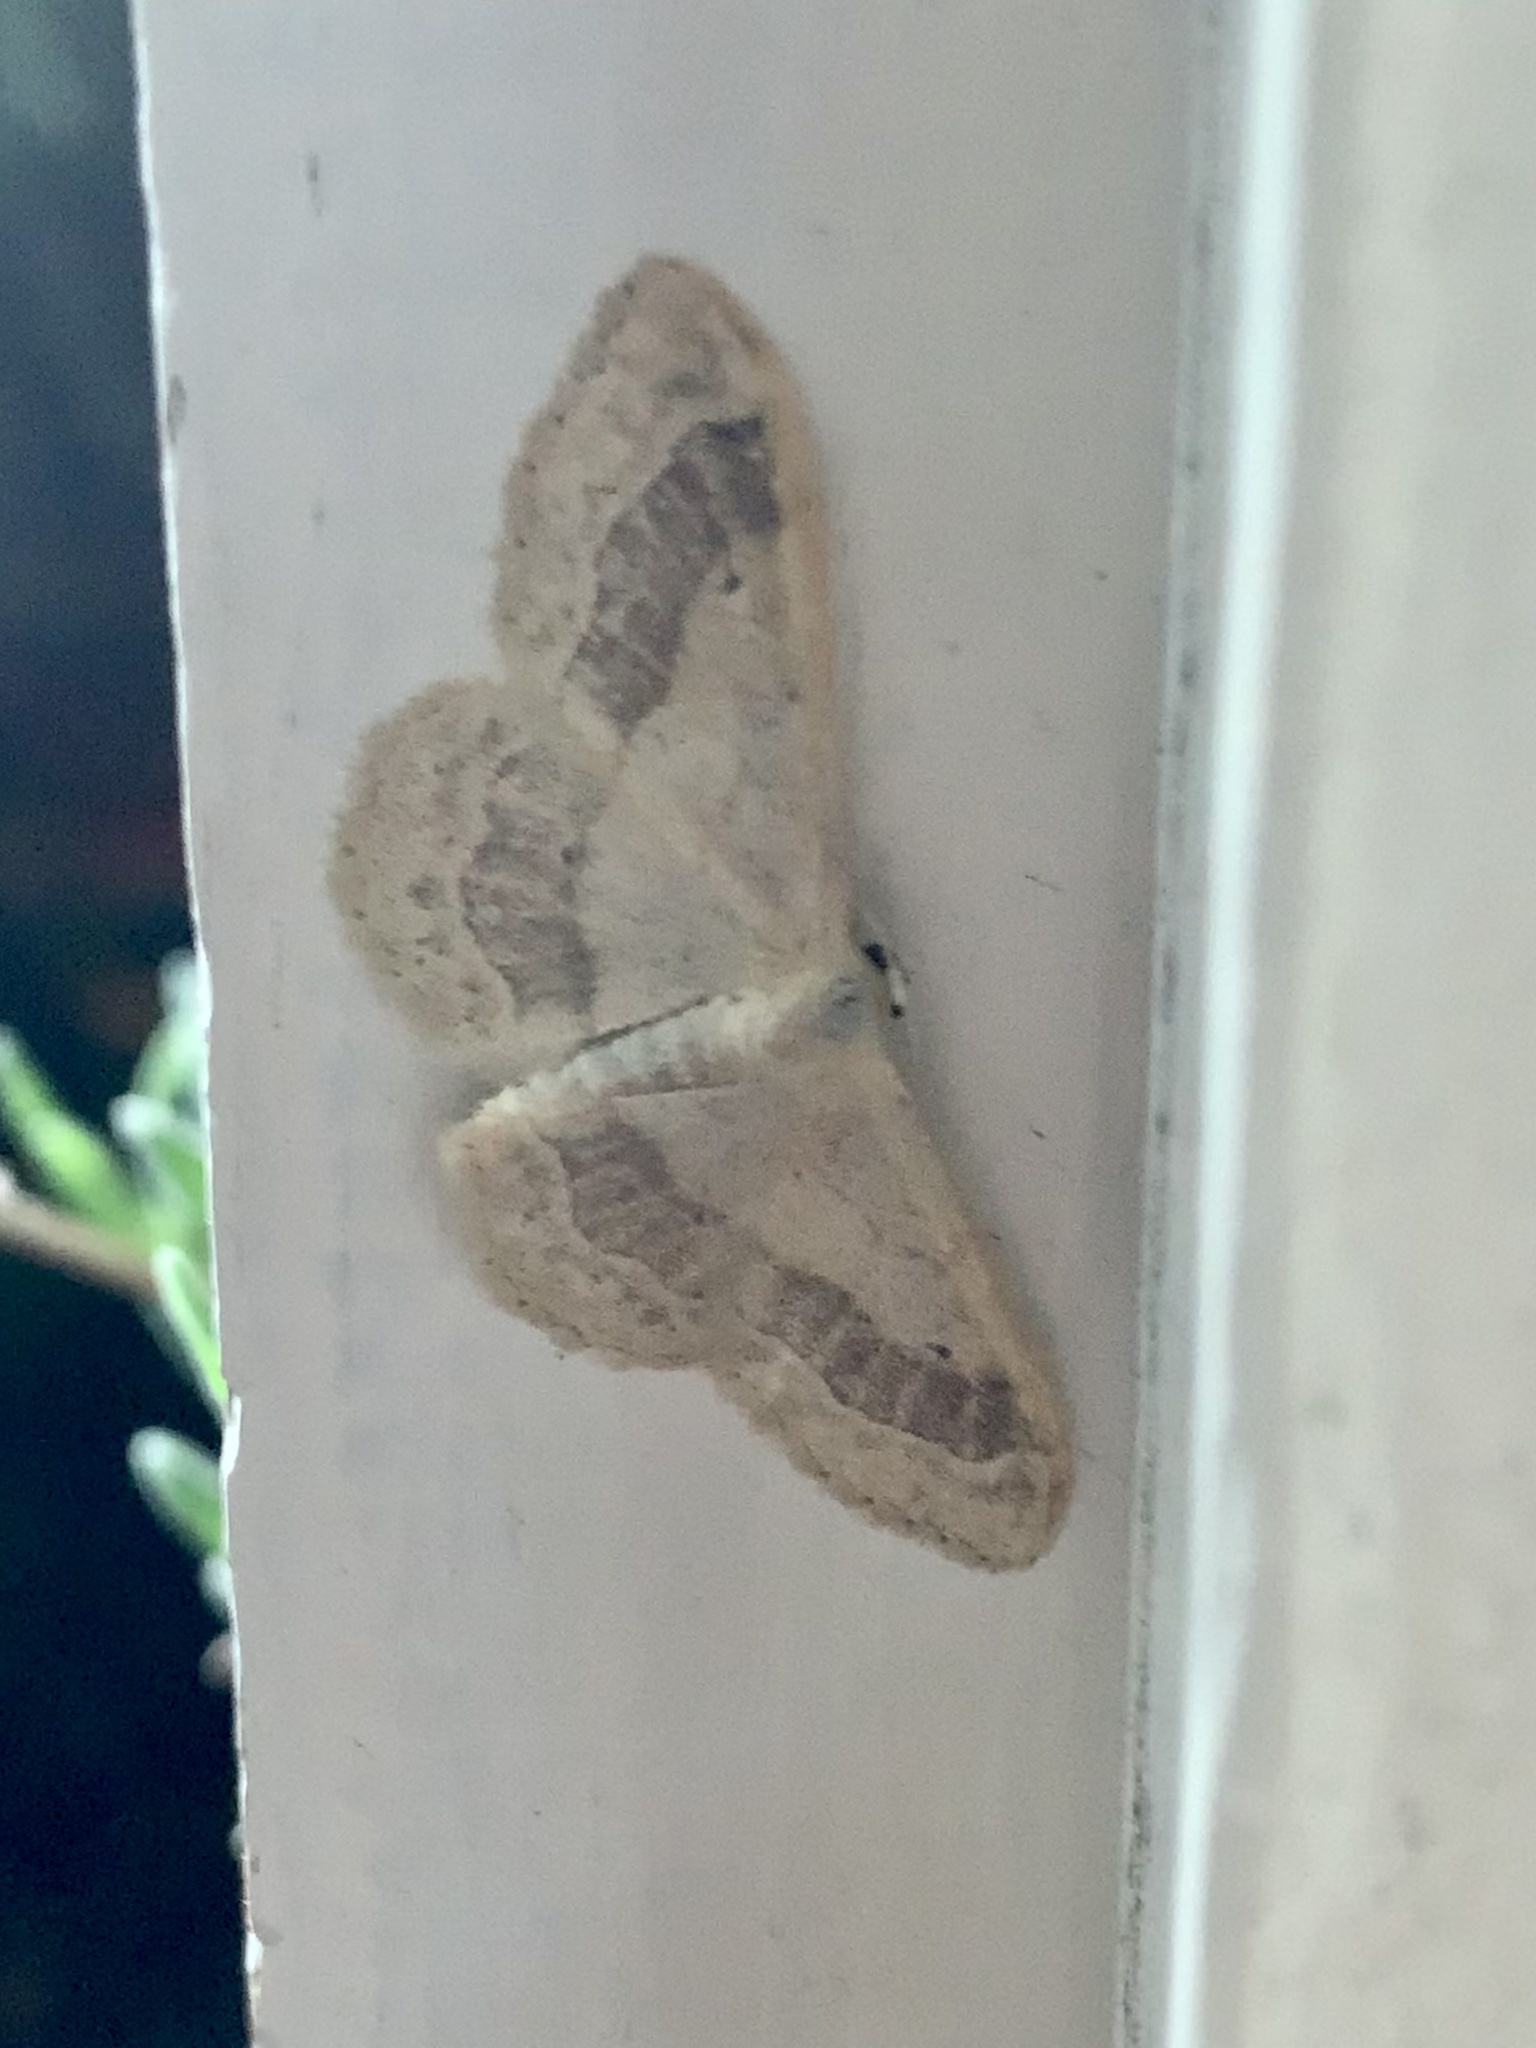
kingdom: Animalia
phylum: Arthropoda
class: Insecta
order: Lepidoptera
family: Geometridae
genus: Idaea
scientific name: Idaea aversata
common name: Riband wave
